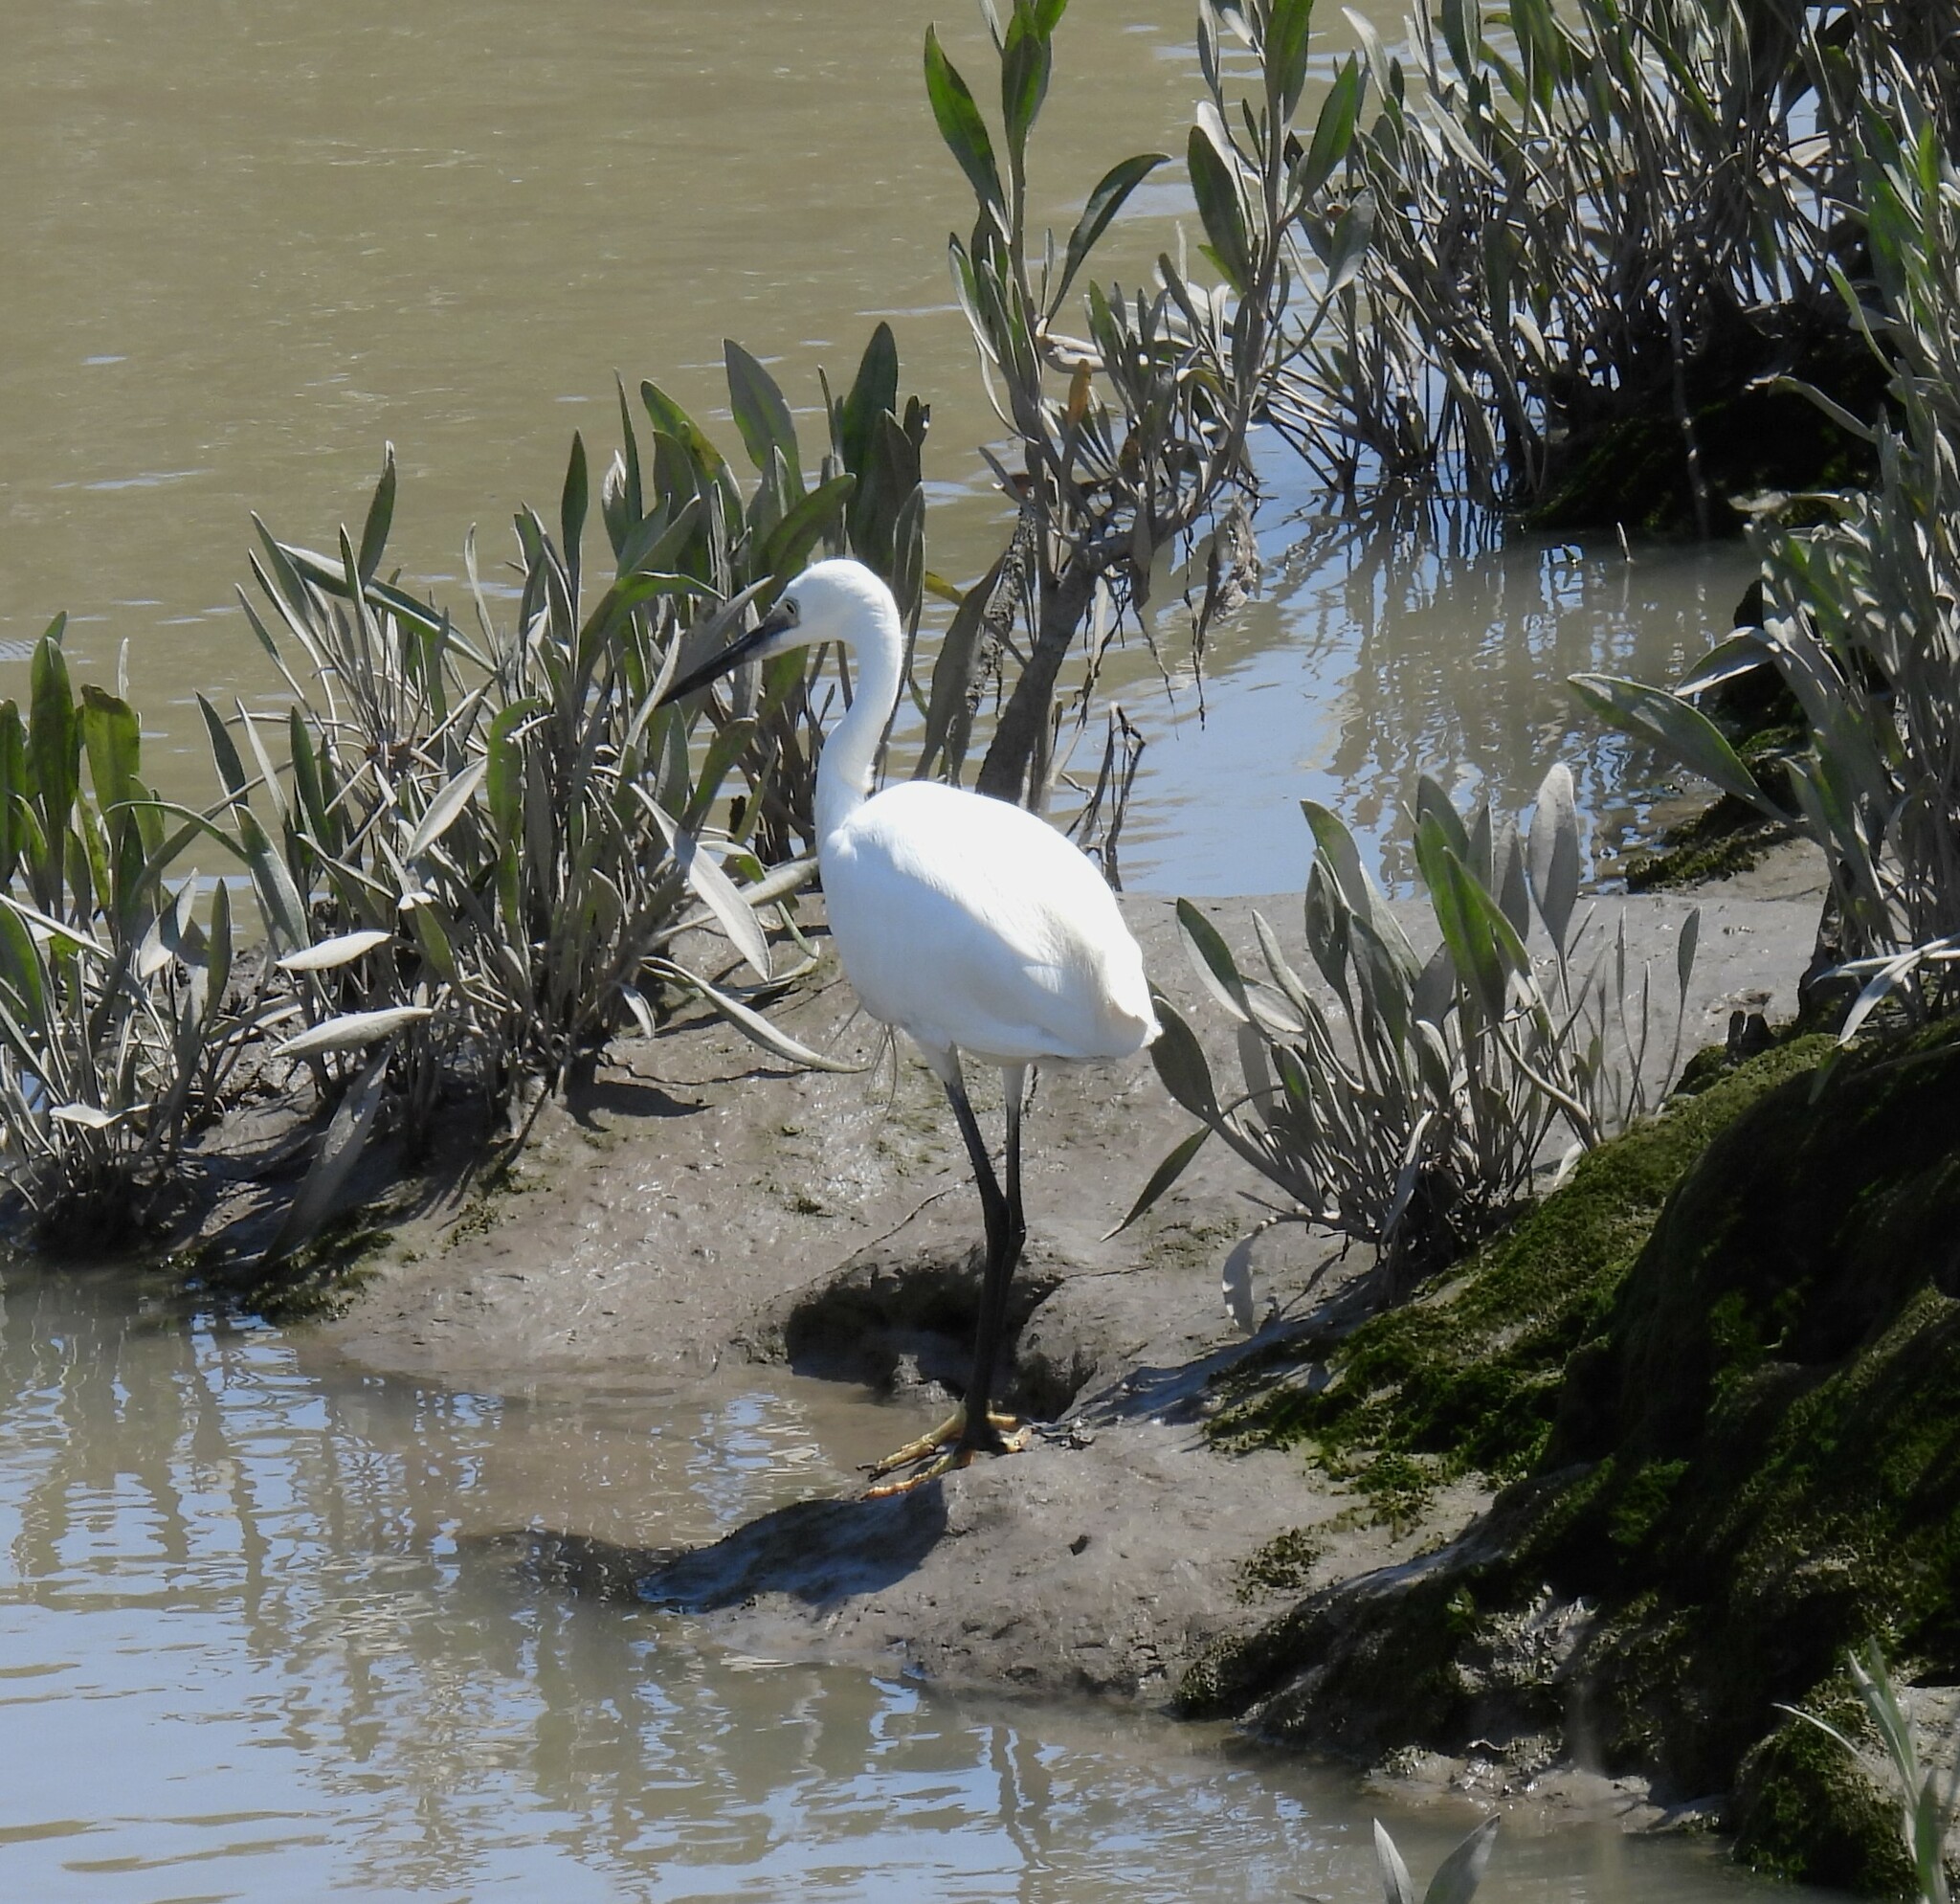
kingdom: Animalia
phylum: Chordata
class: Aves
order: Pelecaniformes
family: Ardeidae
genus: Egretta
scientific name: Egretta garzetta
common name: Little egret
